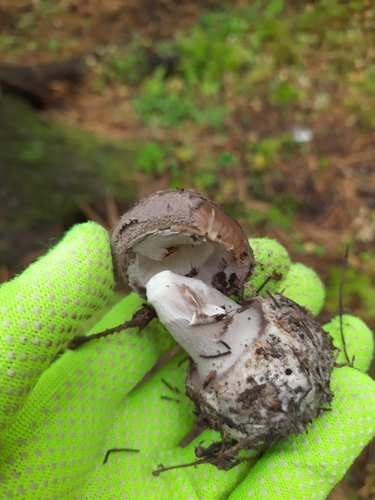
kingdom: Fungi
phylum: Basidiomycota
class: Agaricomycetes
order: Agaricales
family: Amanitaceae
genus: Amanita
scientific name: Amanita porphyria
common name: Grey veiled amanita
